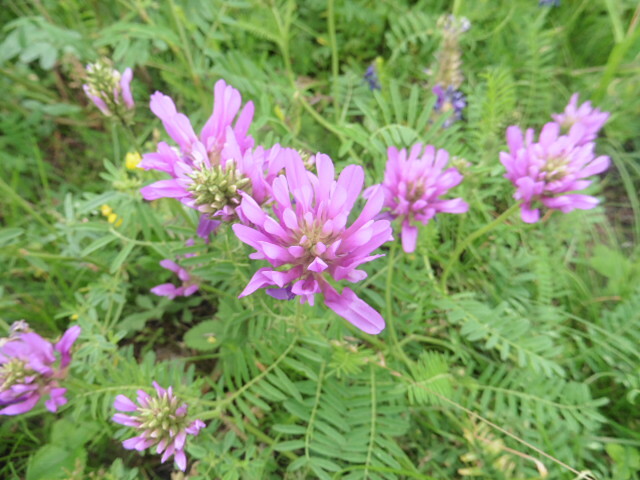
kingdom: Plantae
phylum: Tracheophyta
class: Magnoliopsida
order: Fabales
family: Fabaceae
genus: Astragalus
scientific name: Astragalus onobrychis
